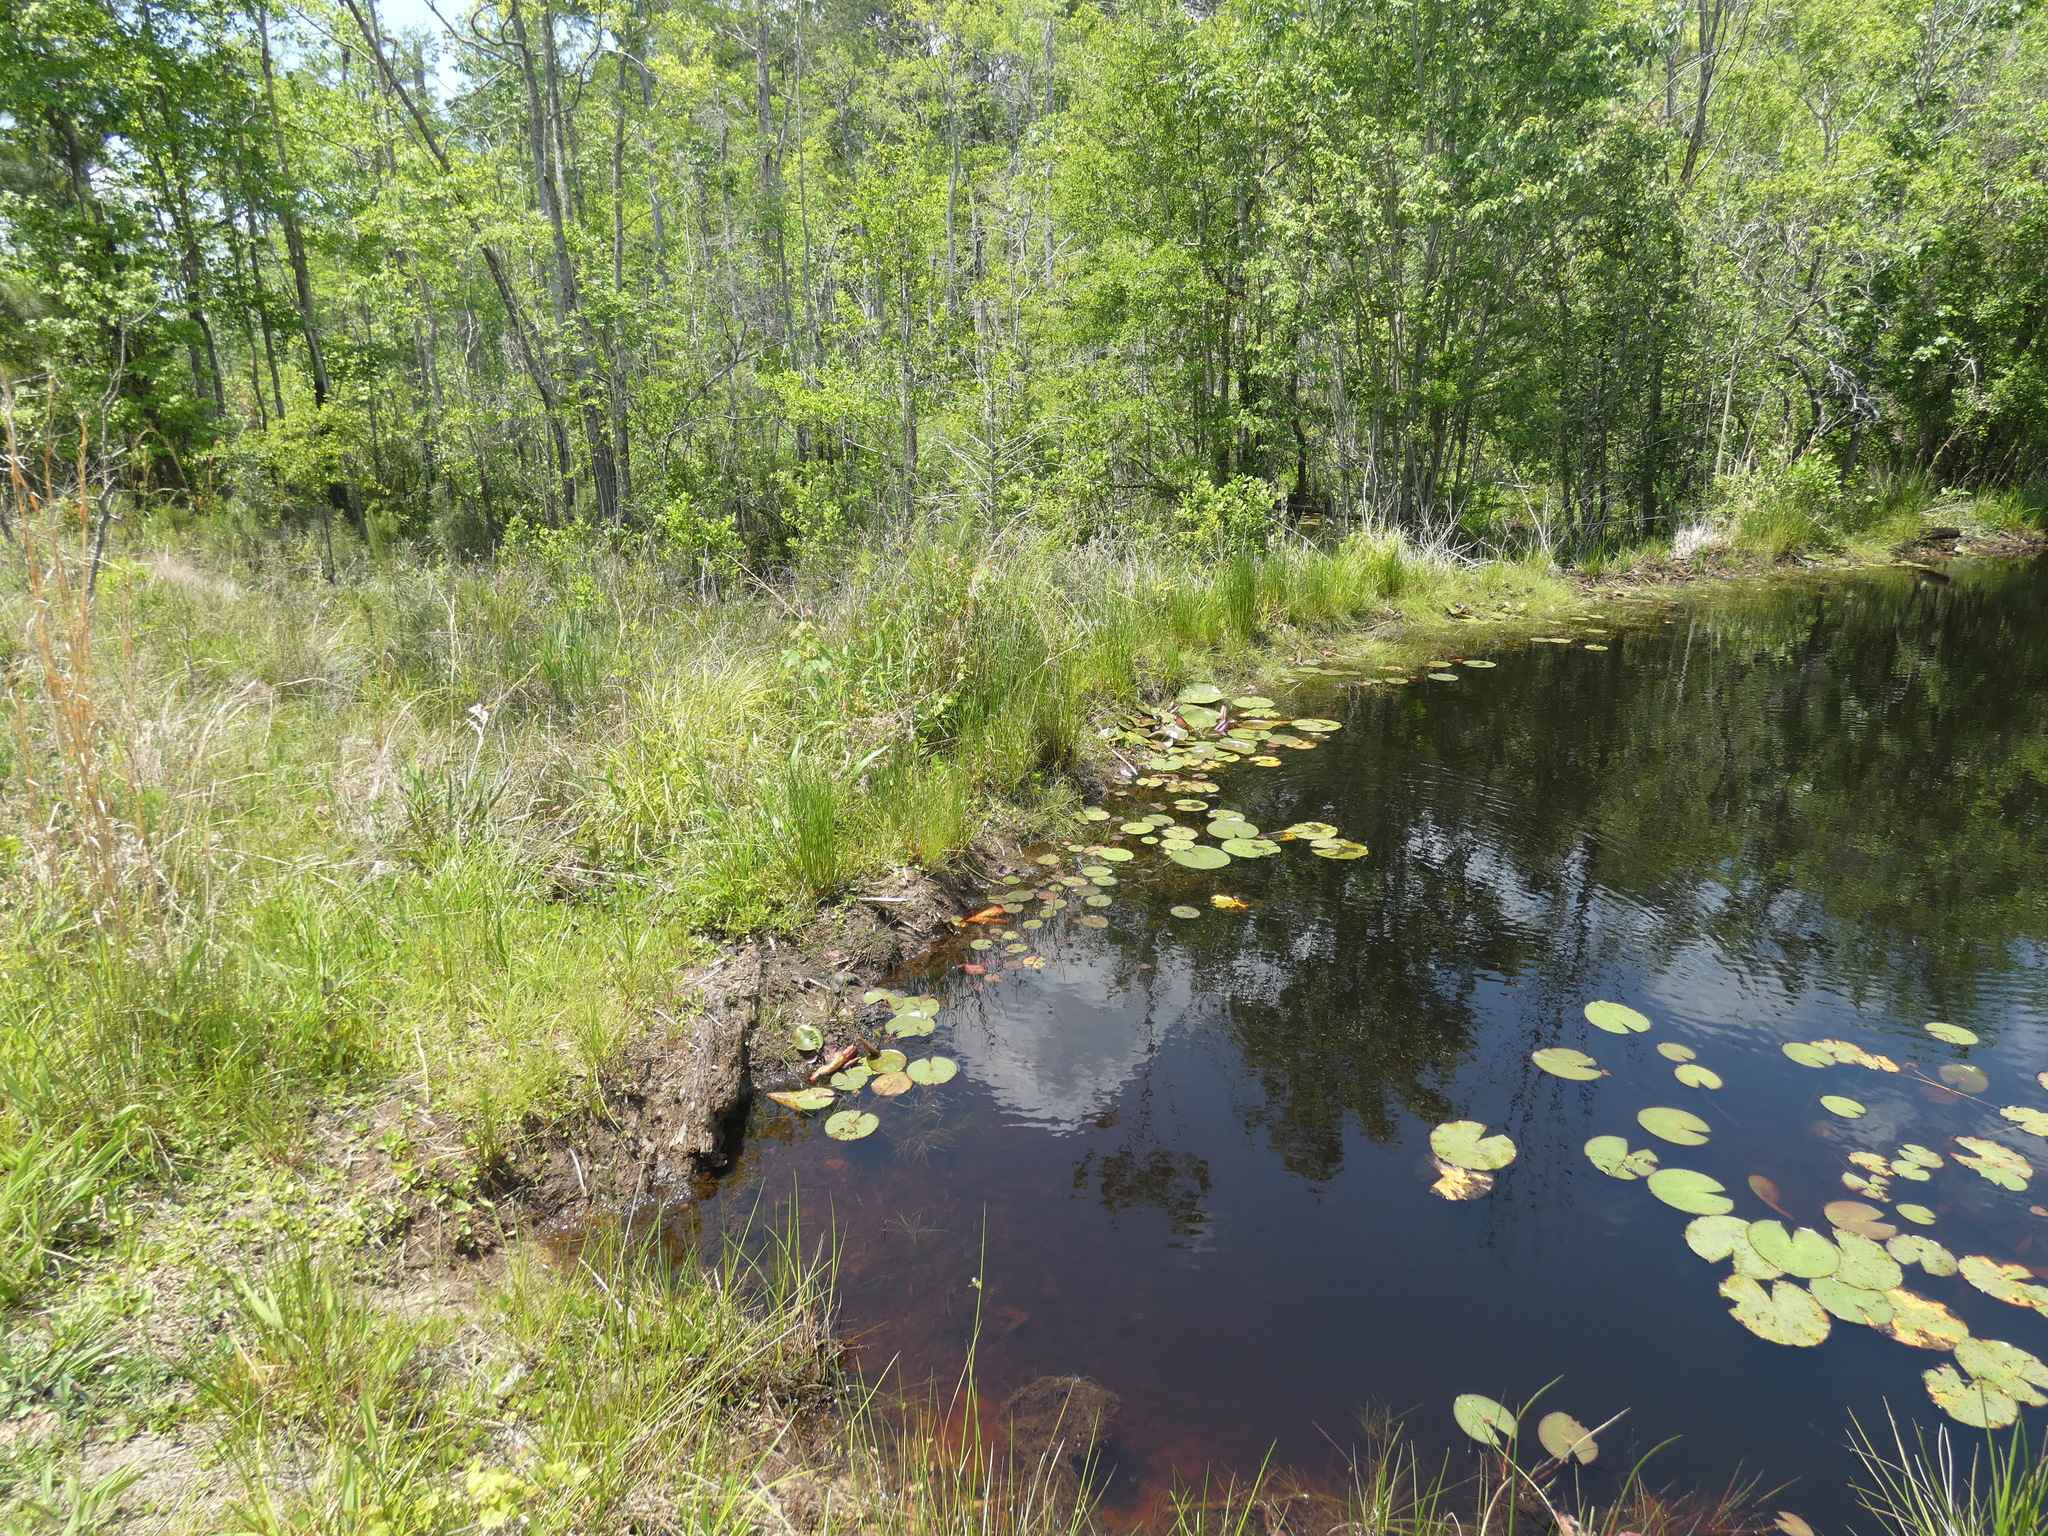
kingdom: Animalia
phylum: Chordata
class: Mammalia
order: Rodentia
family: Castoridae
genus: Castor
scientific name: Castor canadensis
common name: American beaver
